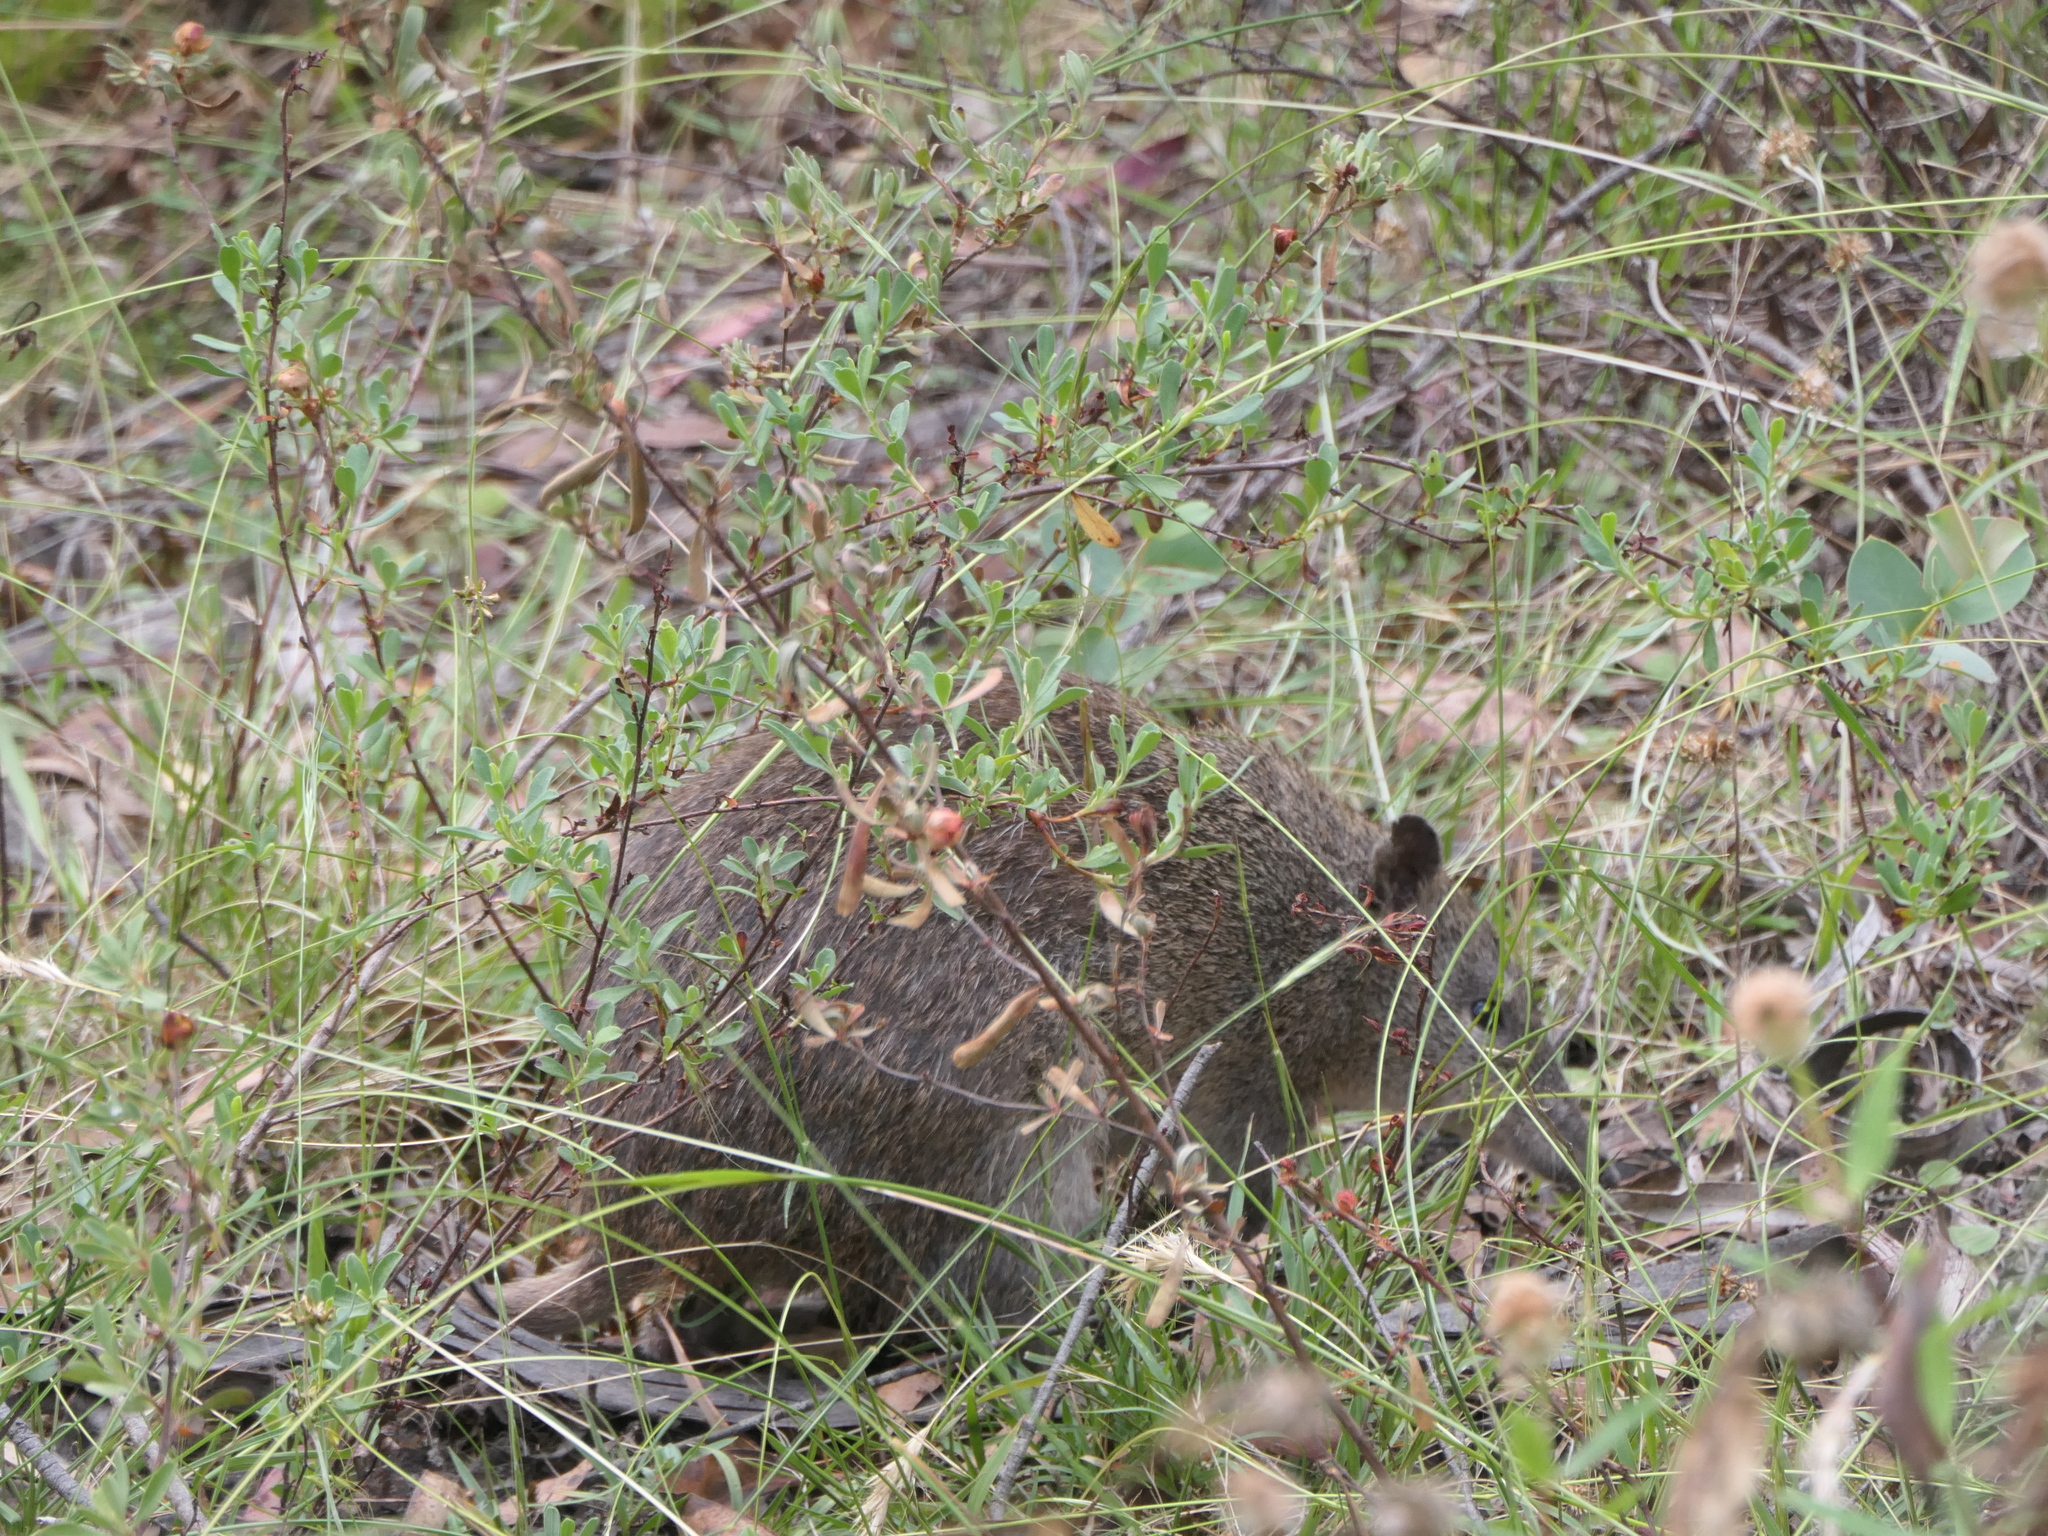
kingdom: Animalia
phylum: Chordata
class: Mammalia
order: Peramelemorphia
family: Peramelidae
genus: Isoodon
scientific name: Isoodon obesulus
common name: Southern brown bandicoot
